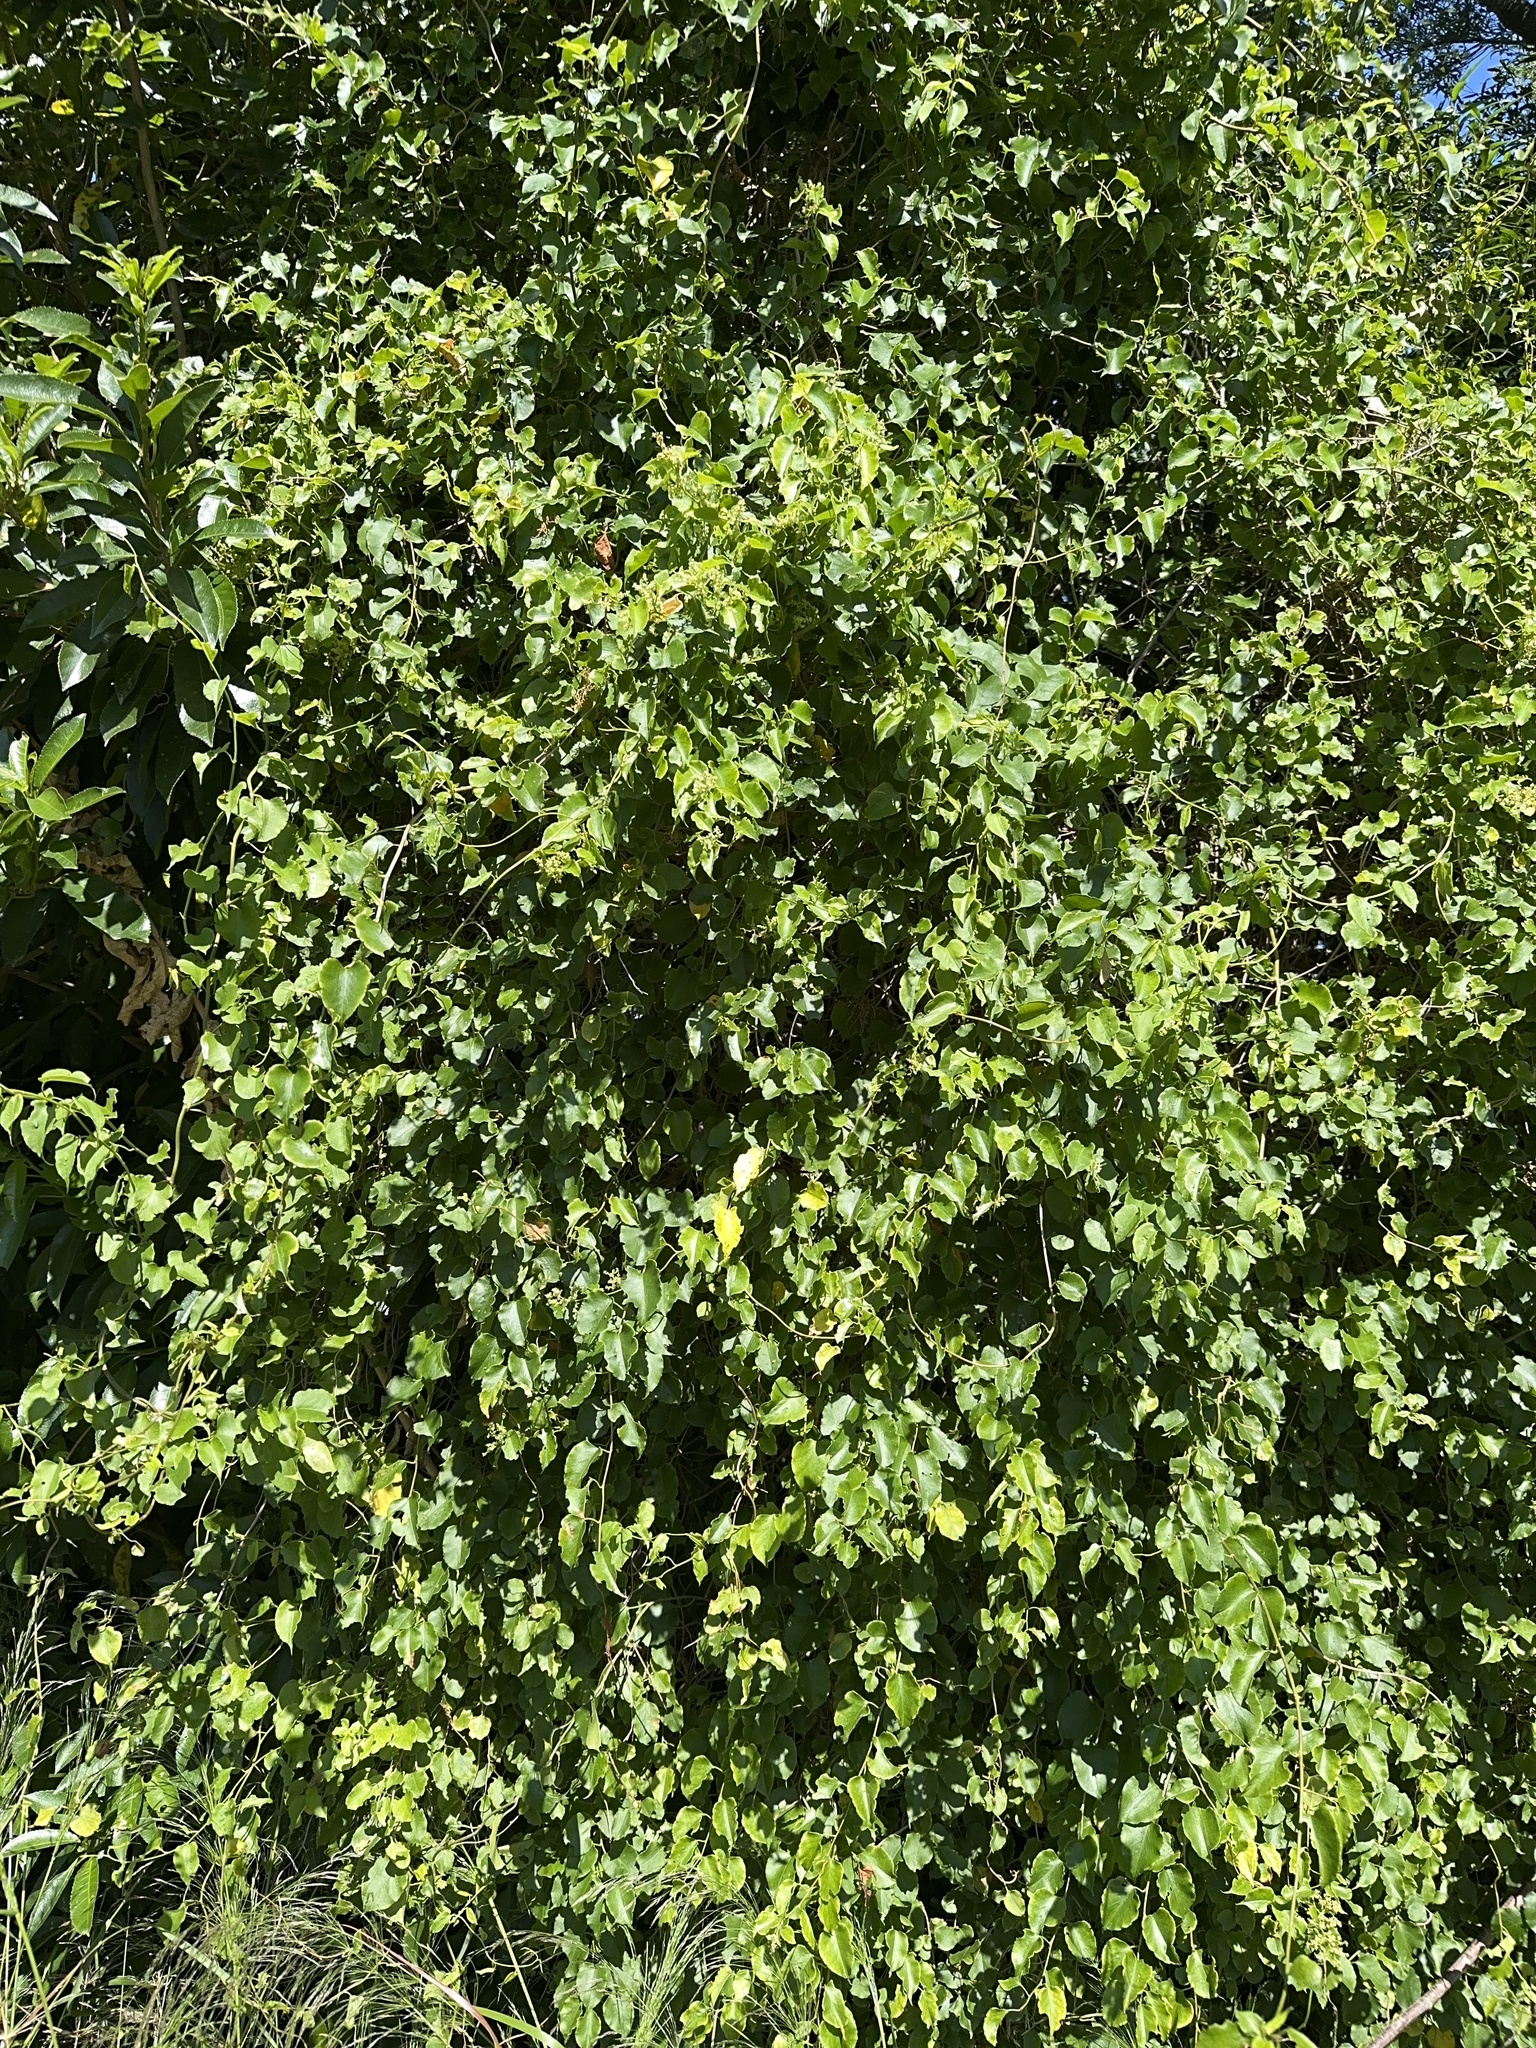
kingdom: Plantae
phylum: Tracheophyta
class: Magnoliopsida
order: Caryophyllales
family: Polygonaceae
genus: Muehlenbeckia
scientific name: Muehlenbeckia australis
